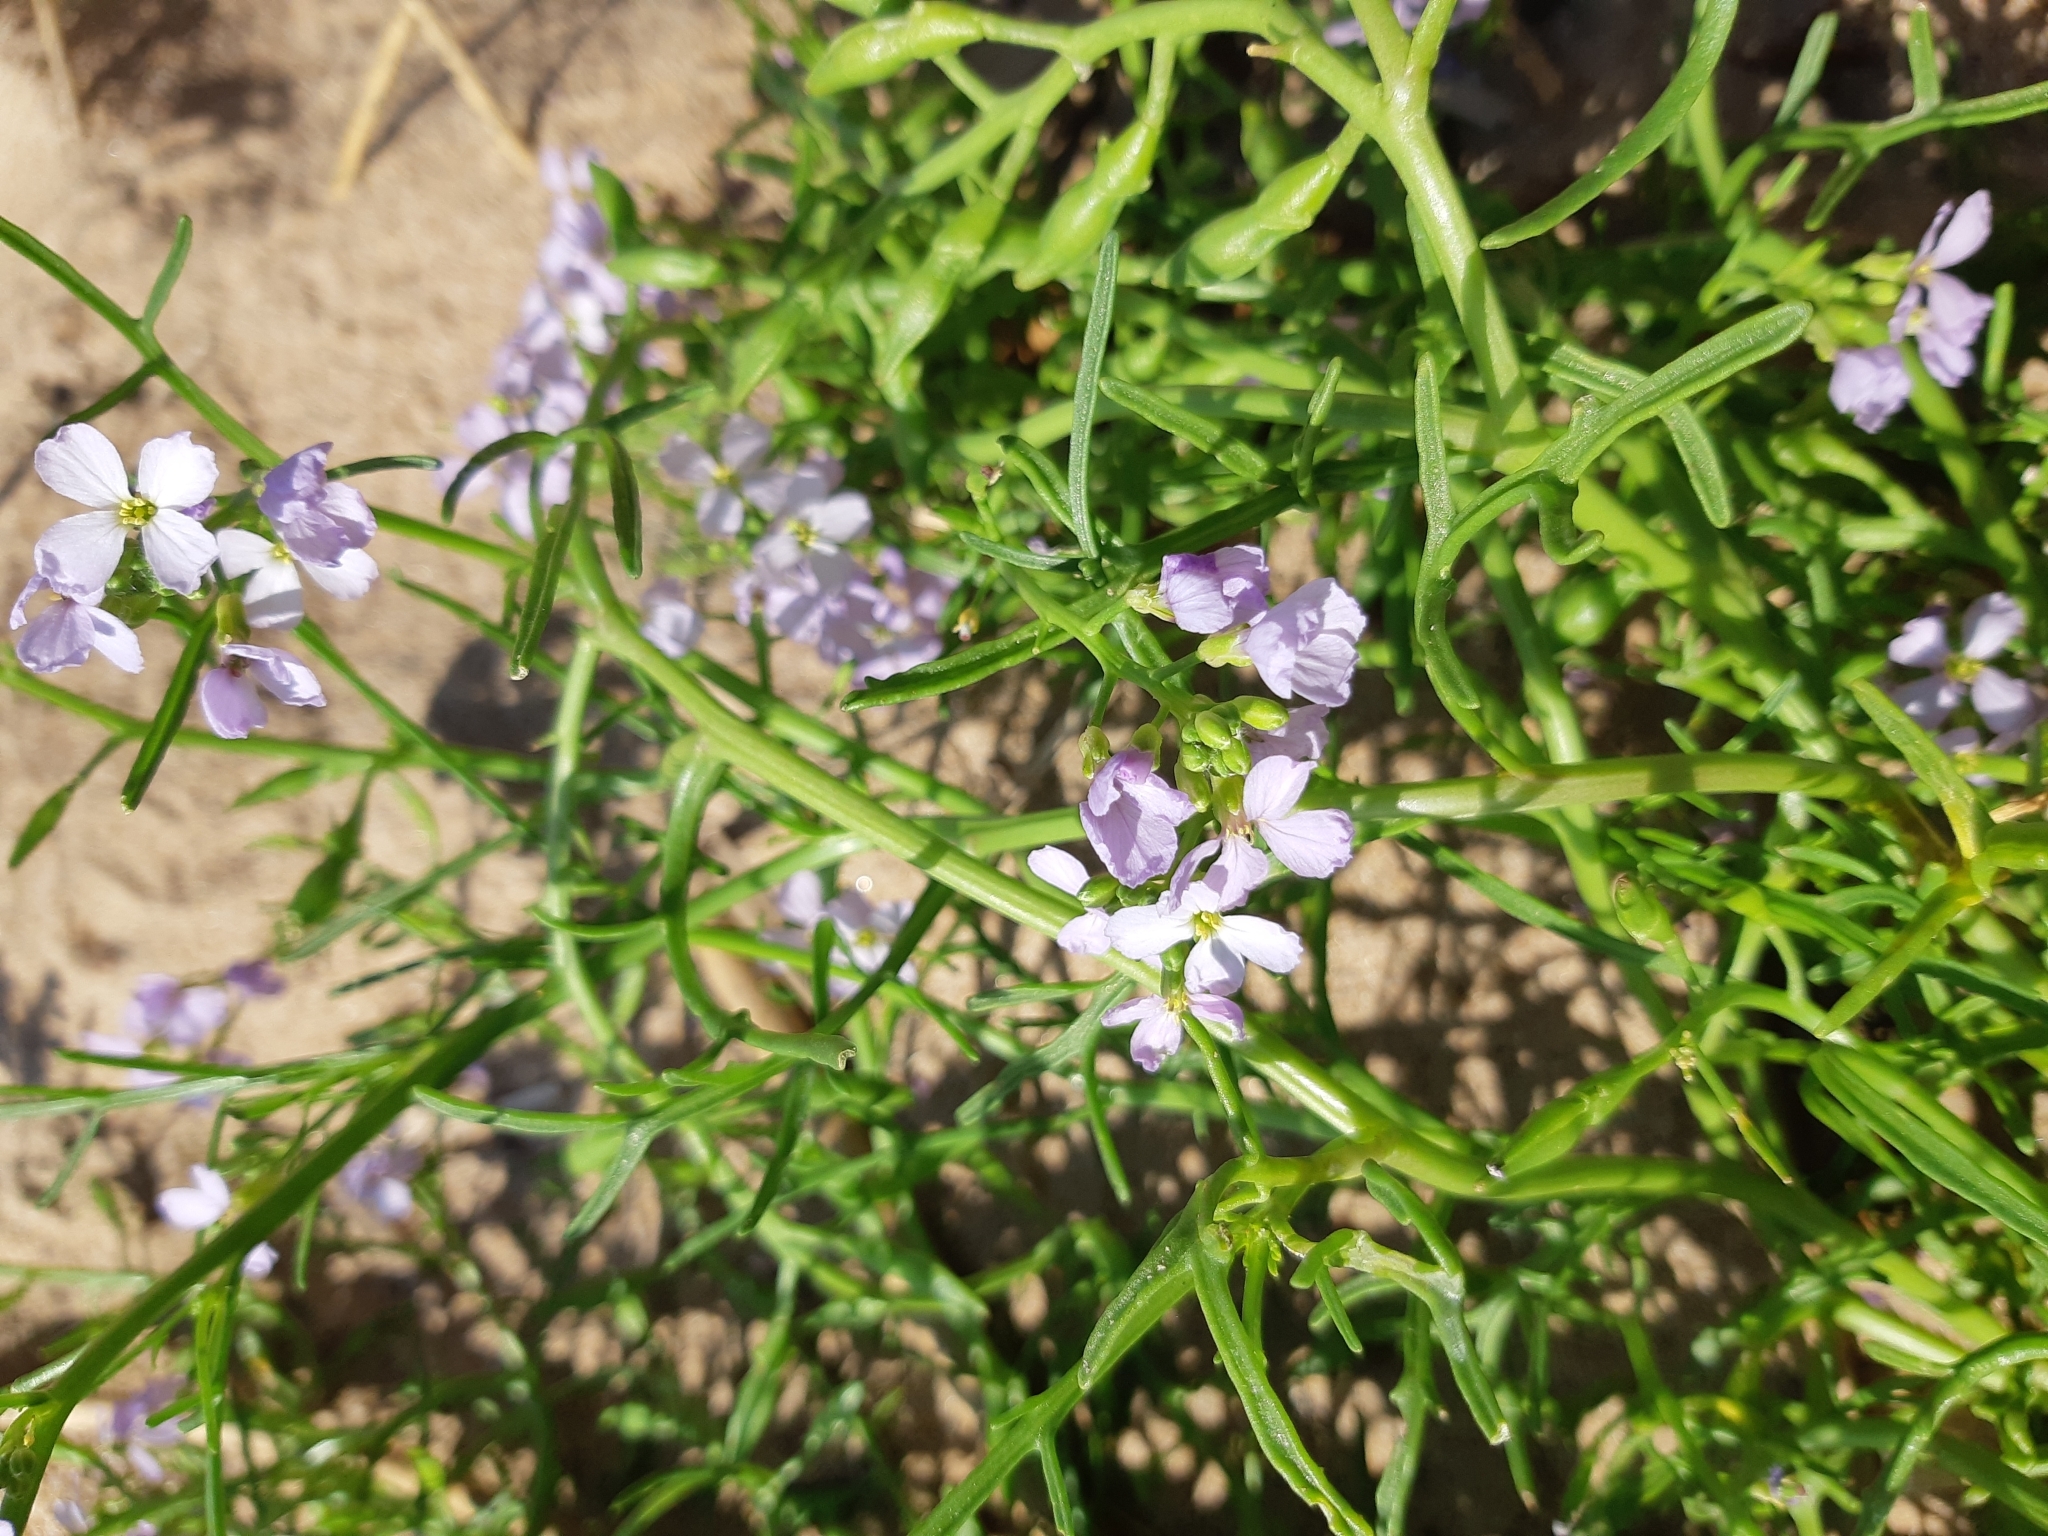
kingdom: Plantae
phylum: Tracheophyta
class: Magnoliopsida
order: Brassicales
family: Brassicaceae
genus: Cakile
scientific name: Cakile maritima
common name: Sea rocket
